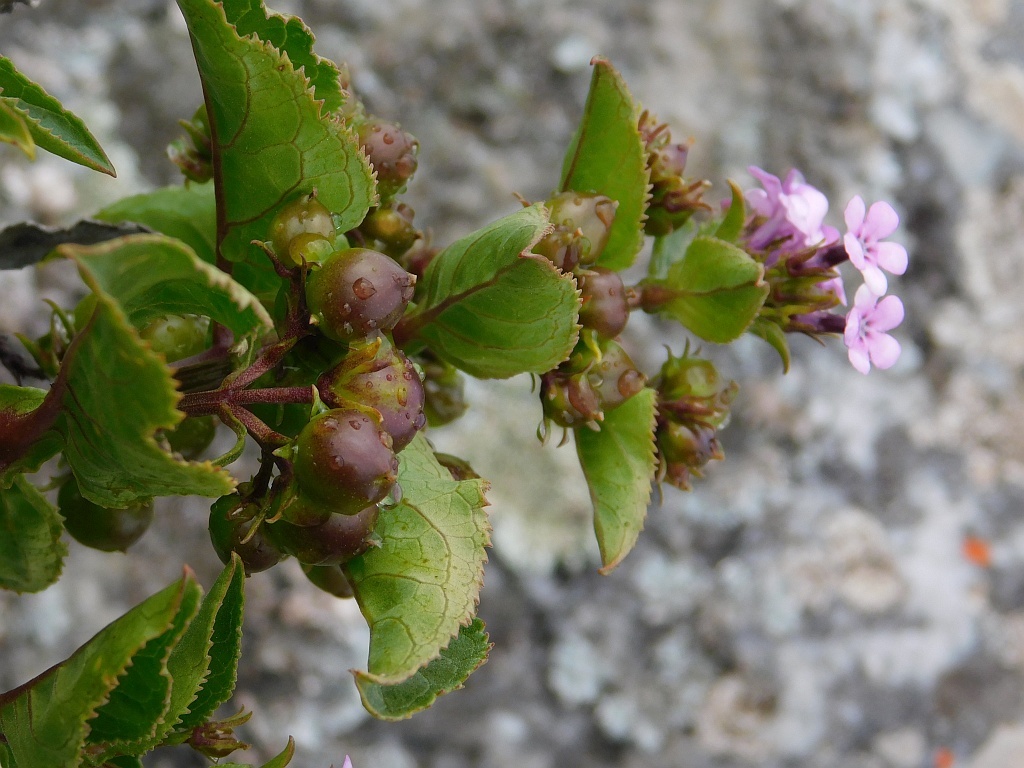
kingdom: Plantae
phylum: Tracheophyta
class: Magnoliopsida
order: Lamiales
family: Scrophulariaceae
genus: Teedia
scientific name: Teedia lucida
